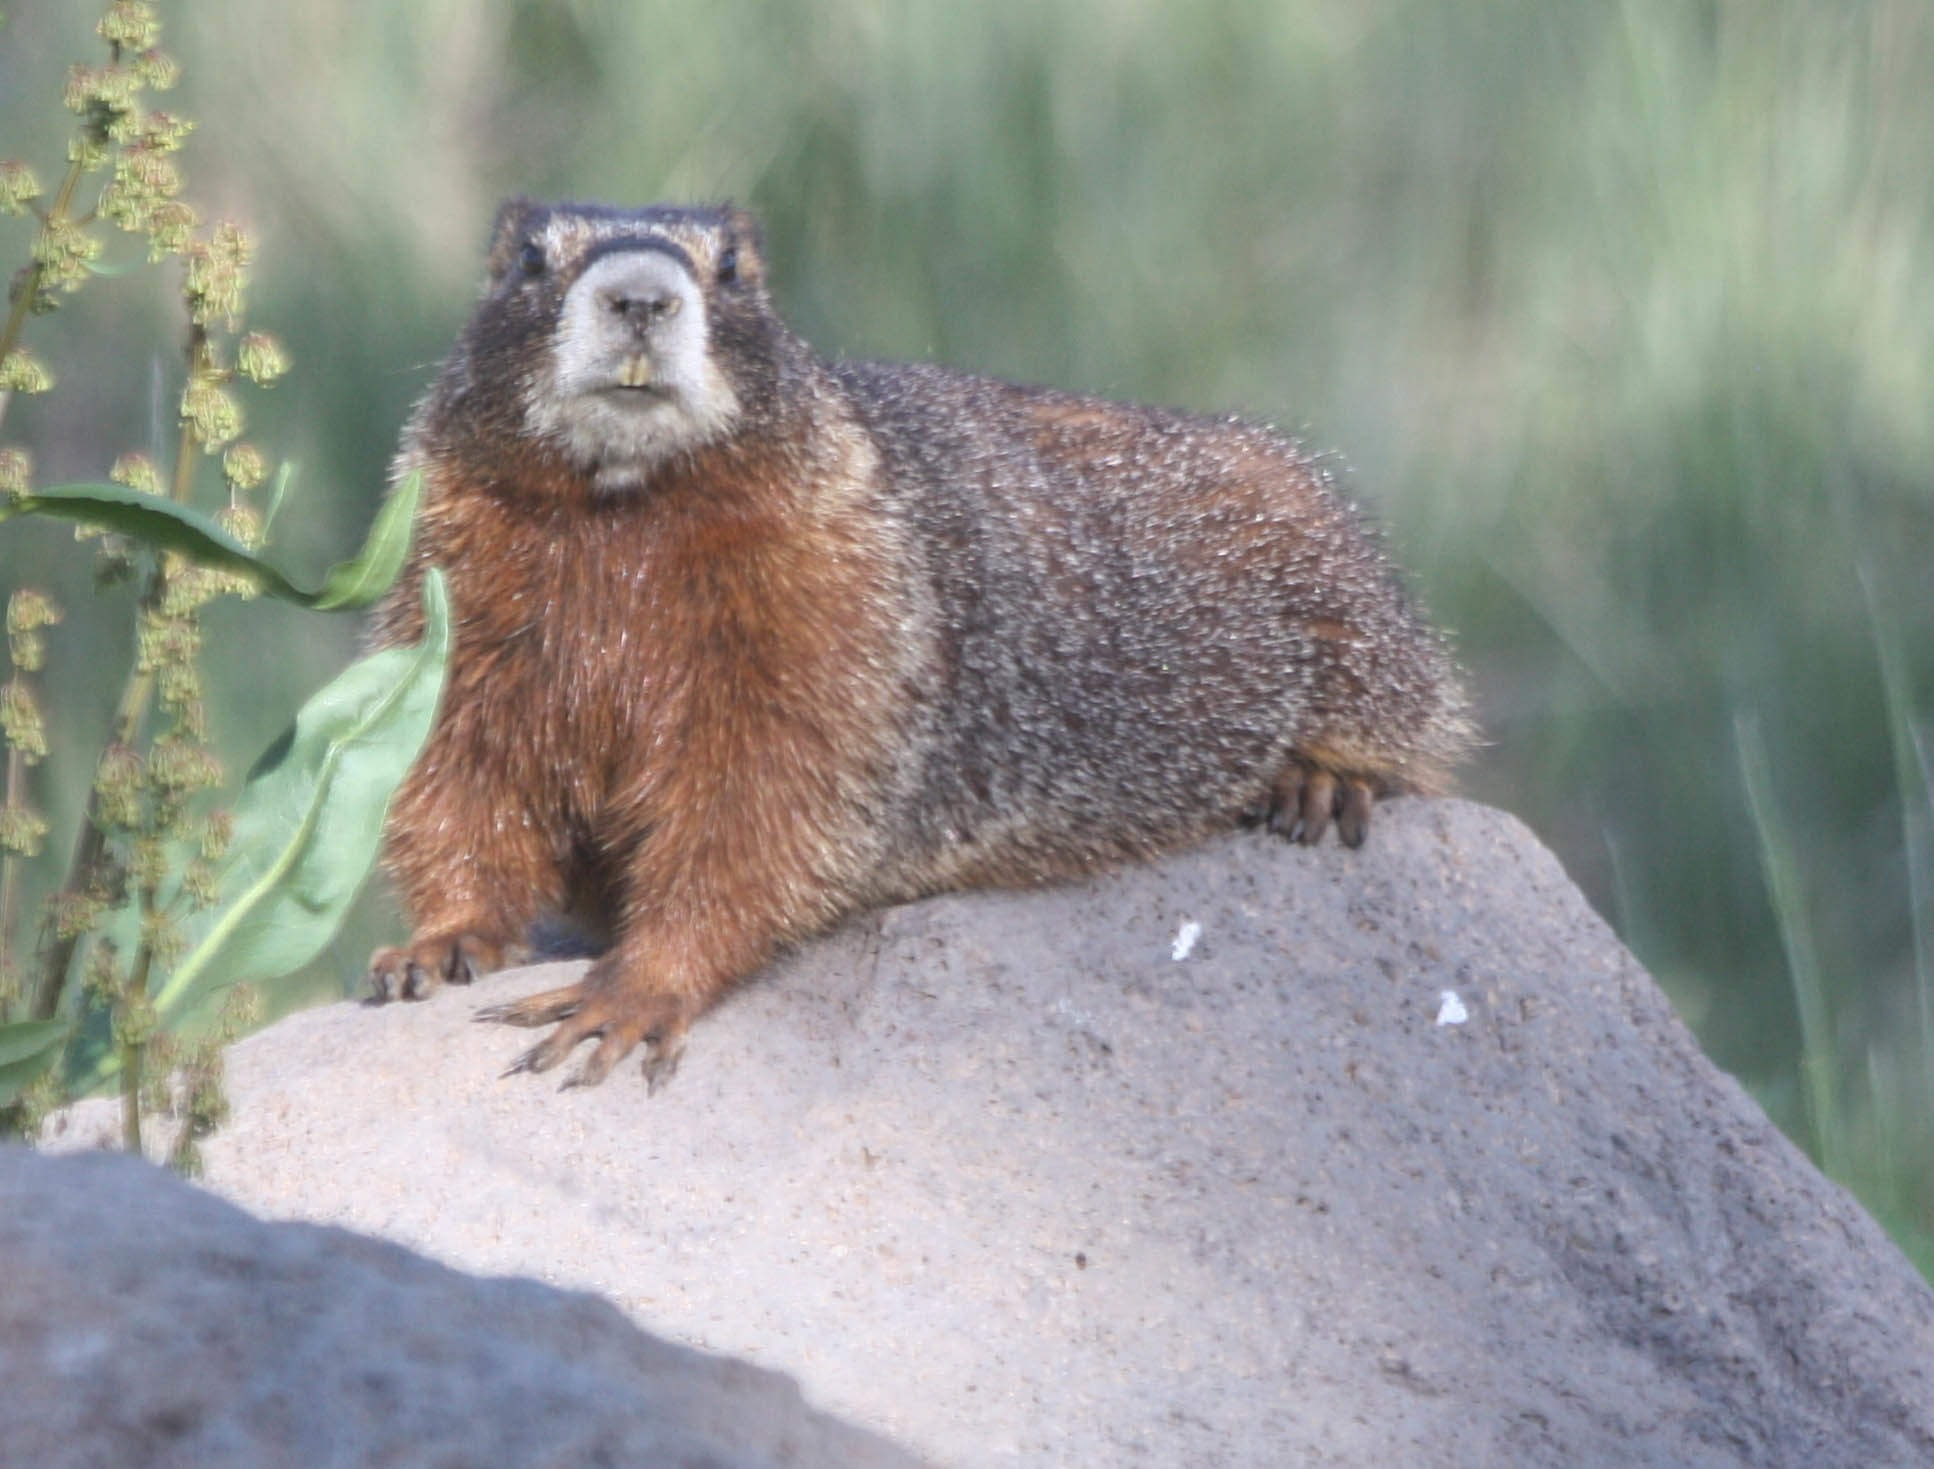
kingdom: Animalia
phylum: Chordata
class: Mammalia
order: Rodentia
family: Sciuridae
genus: Marmota
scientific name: Marmota flaviventris
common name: Yellow-bellied marmot
